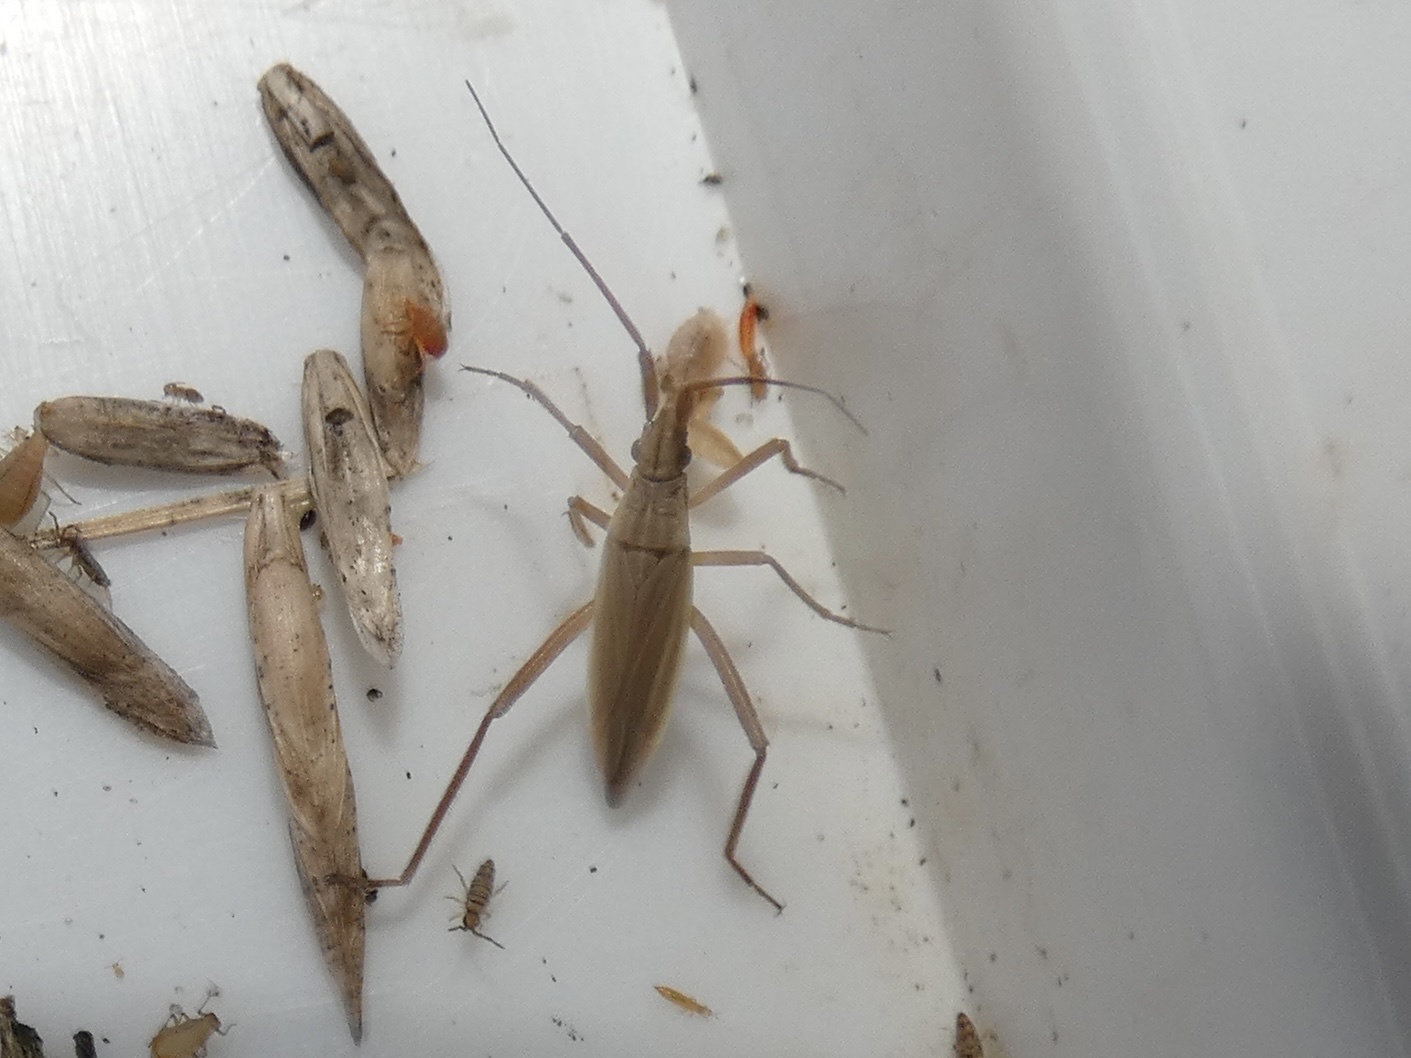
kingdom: Animalia
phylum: Arthropoda
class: Insecta
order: Hemiptera
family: Miridae
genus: Stenodema
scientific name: Stenodema laevigata
